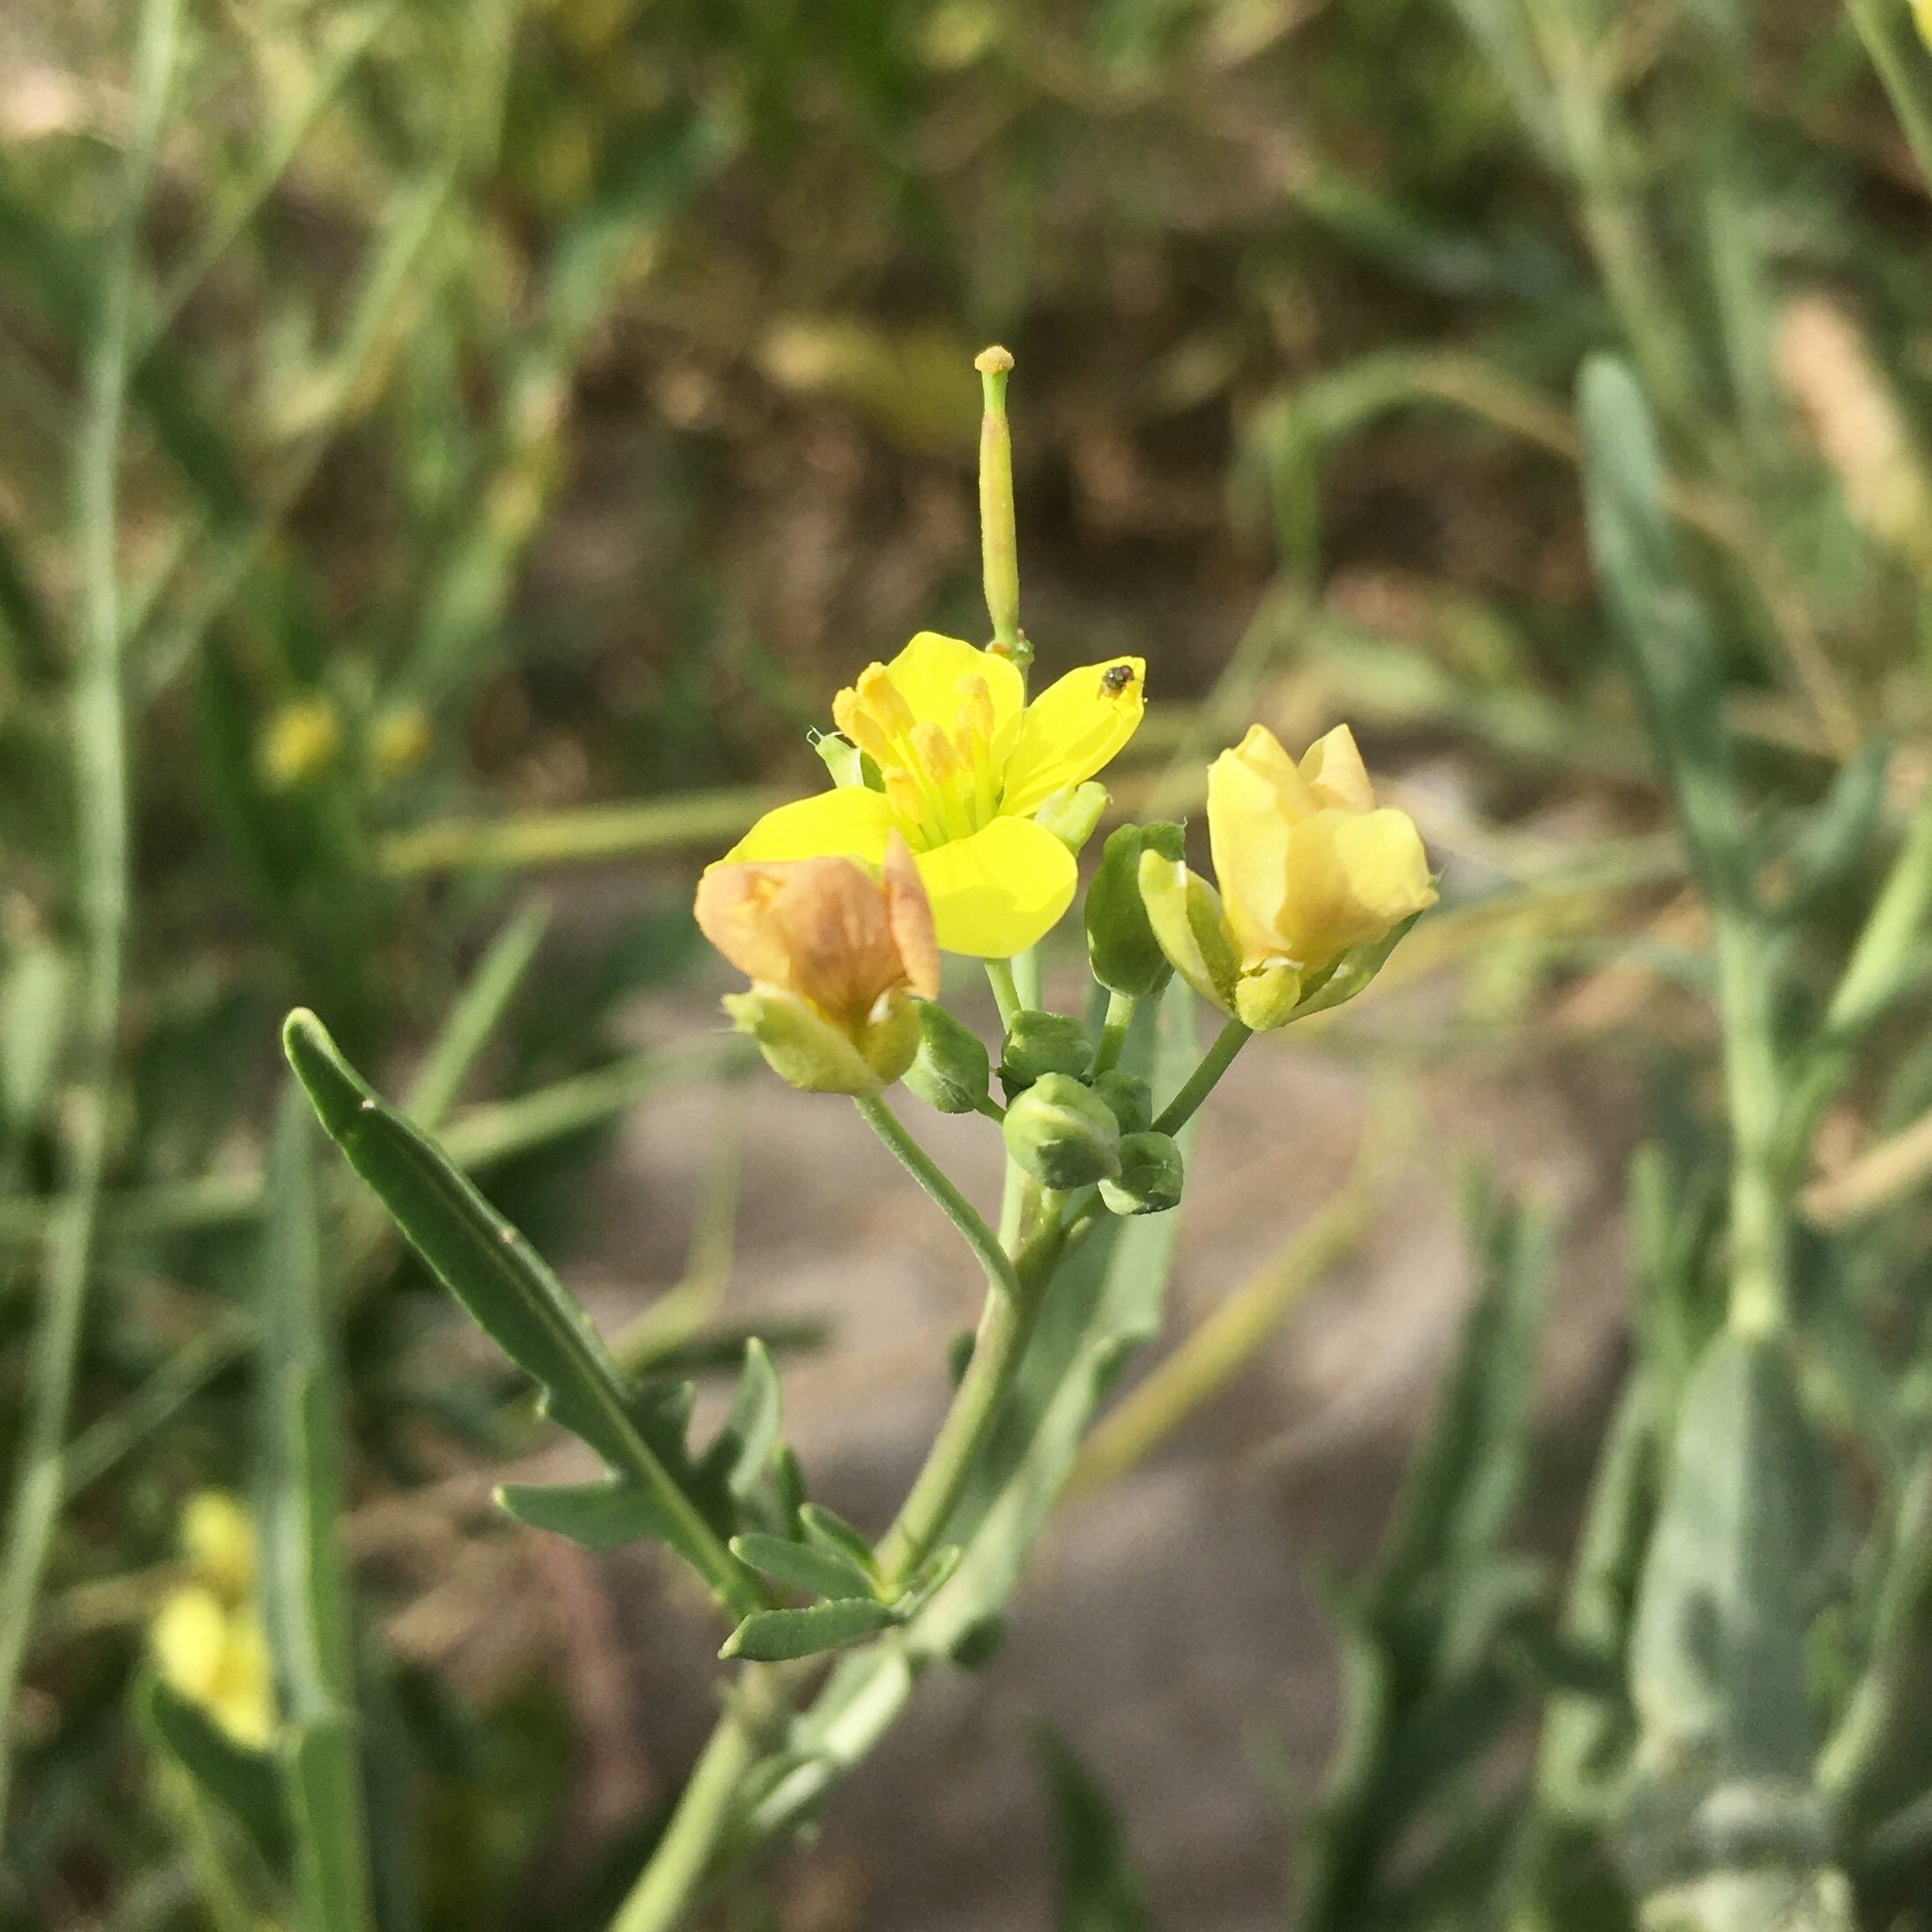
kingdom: Plantae
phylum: Tracheophyta
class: Magnoliopsida
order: Brassicales
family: Brassicaceae
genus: Diplotaxis
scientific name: Diplotaxis tenuifolia
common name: Perennial wall-rocket
